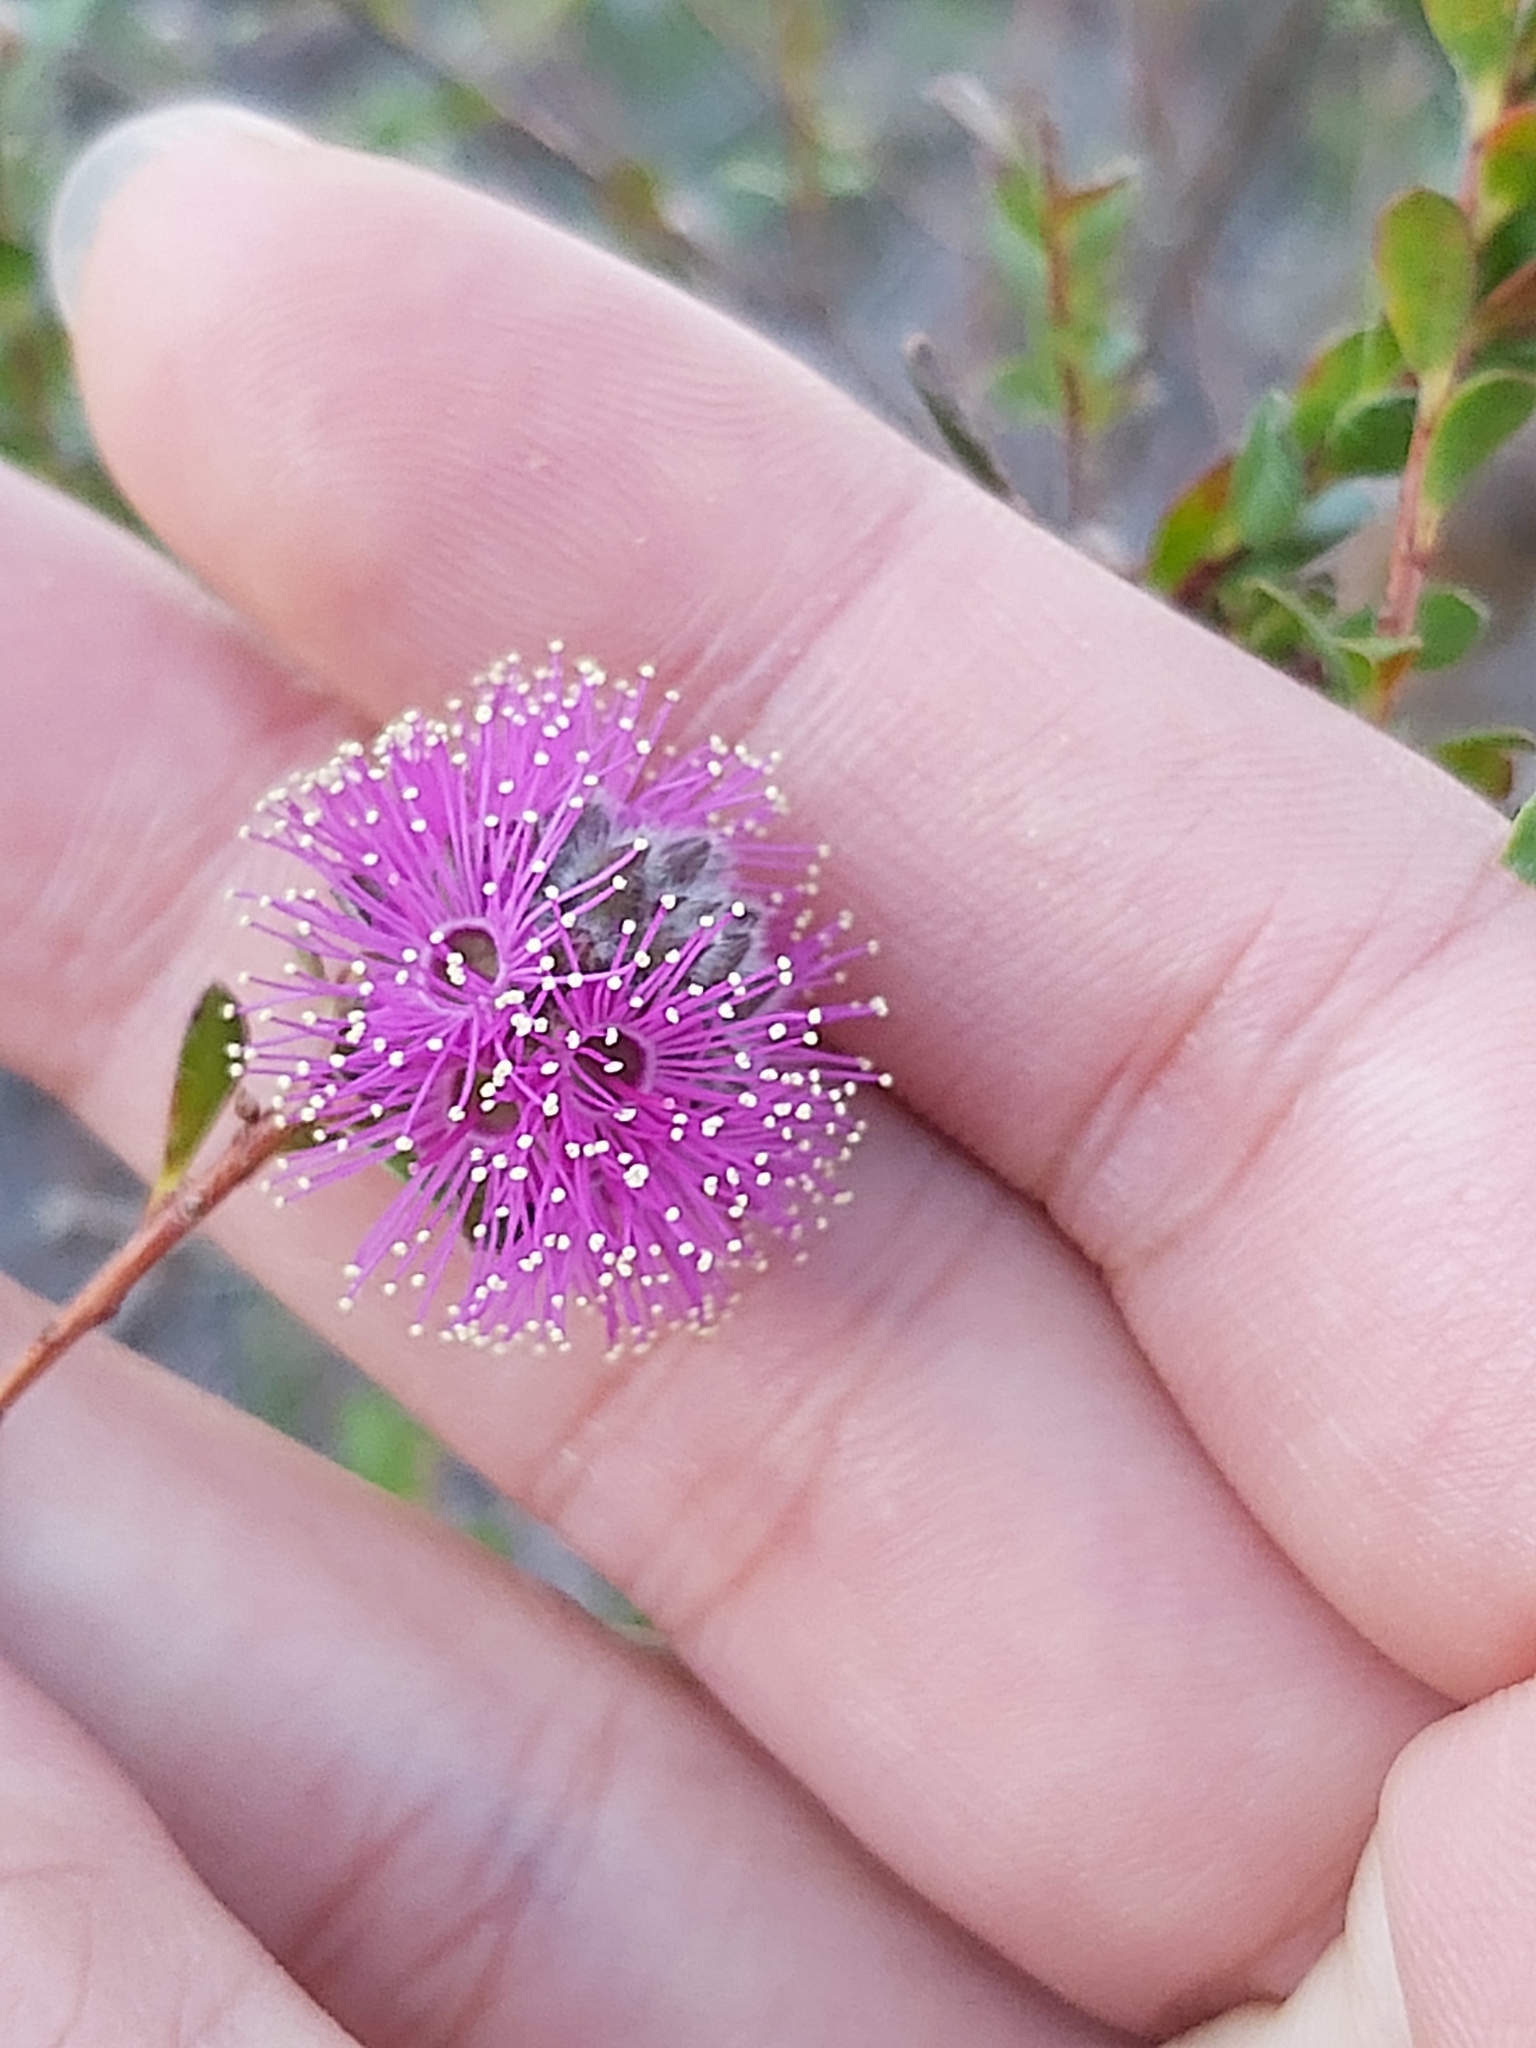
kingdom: Plantae
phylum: Tracheophyta
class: Magnoliopsida
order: Myrtales
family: Myrtaceae
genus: Kunzea
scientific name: Kunzea capitata
